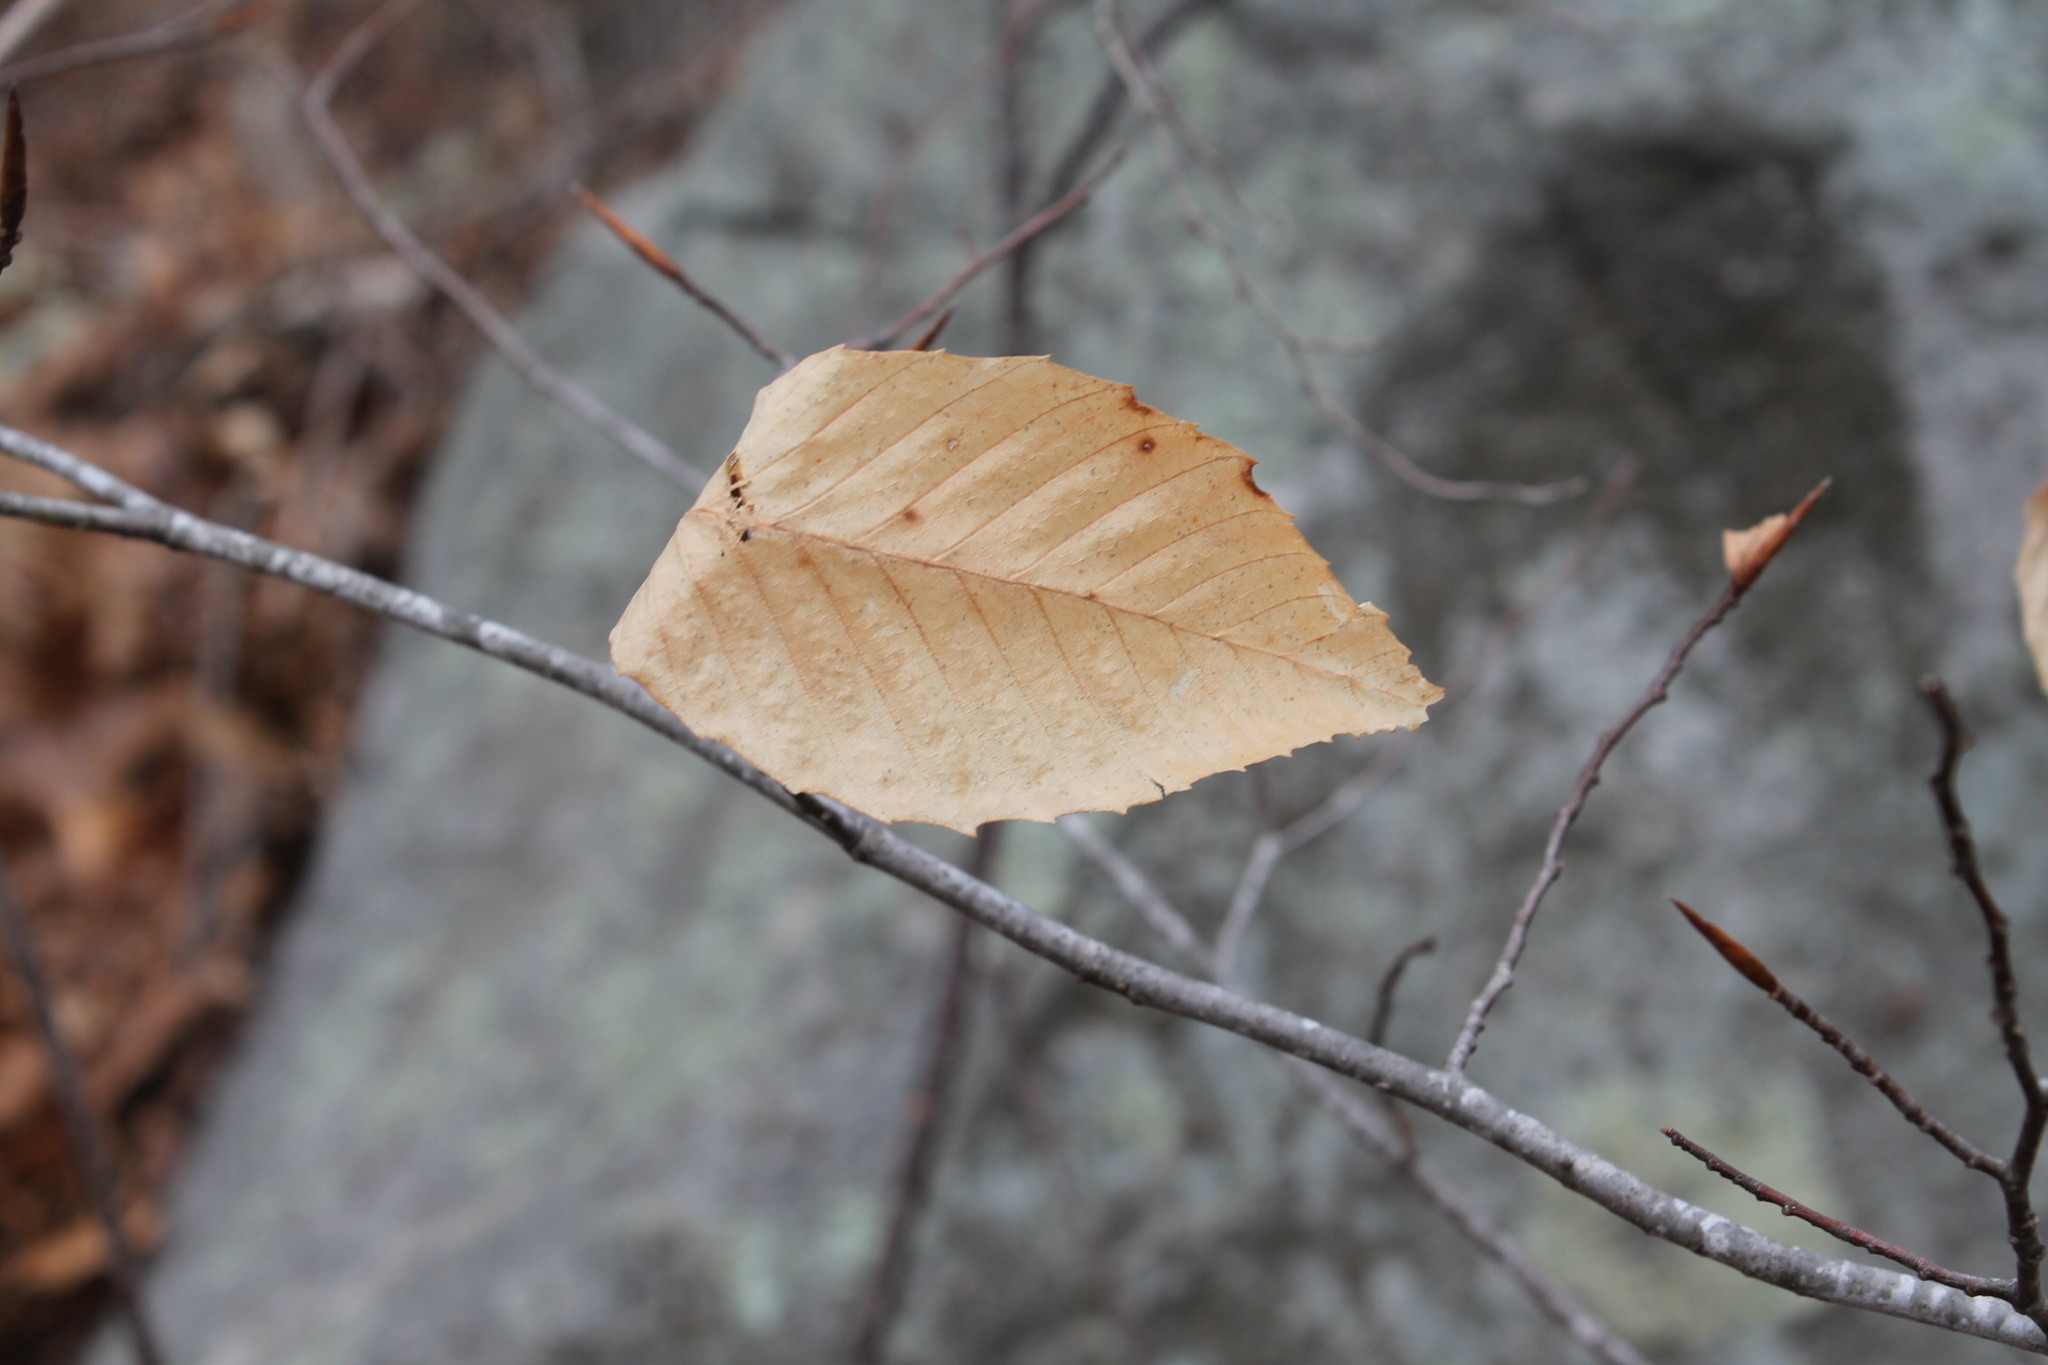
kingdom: Plantae
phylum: Tracheophyta
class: Magnoliopsida
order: Fagales
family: Fagaceae
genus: Fagus
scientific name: Fagus grandifolia
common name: American beech
